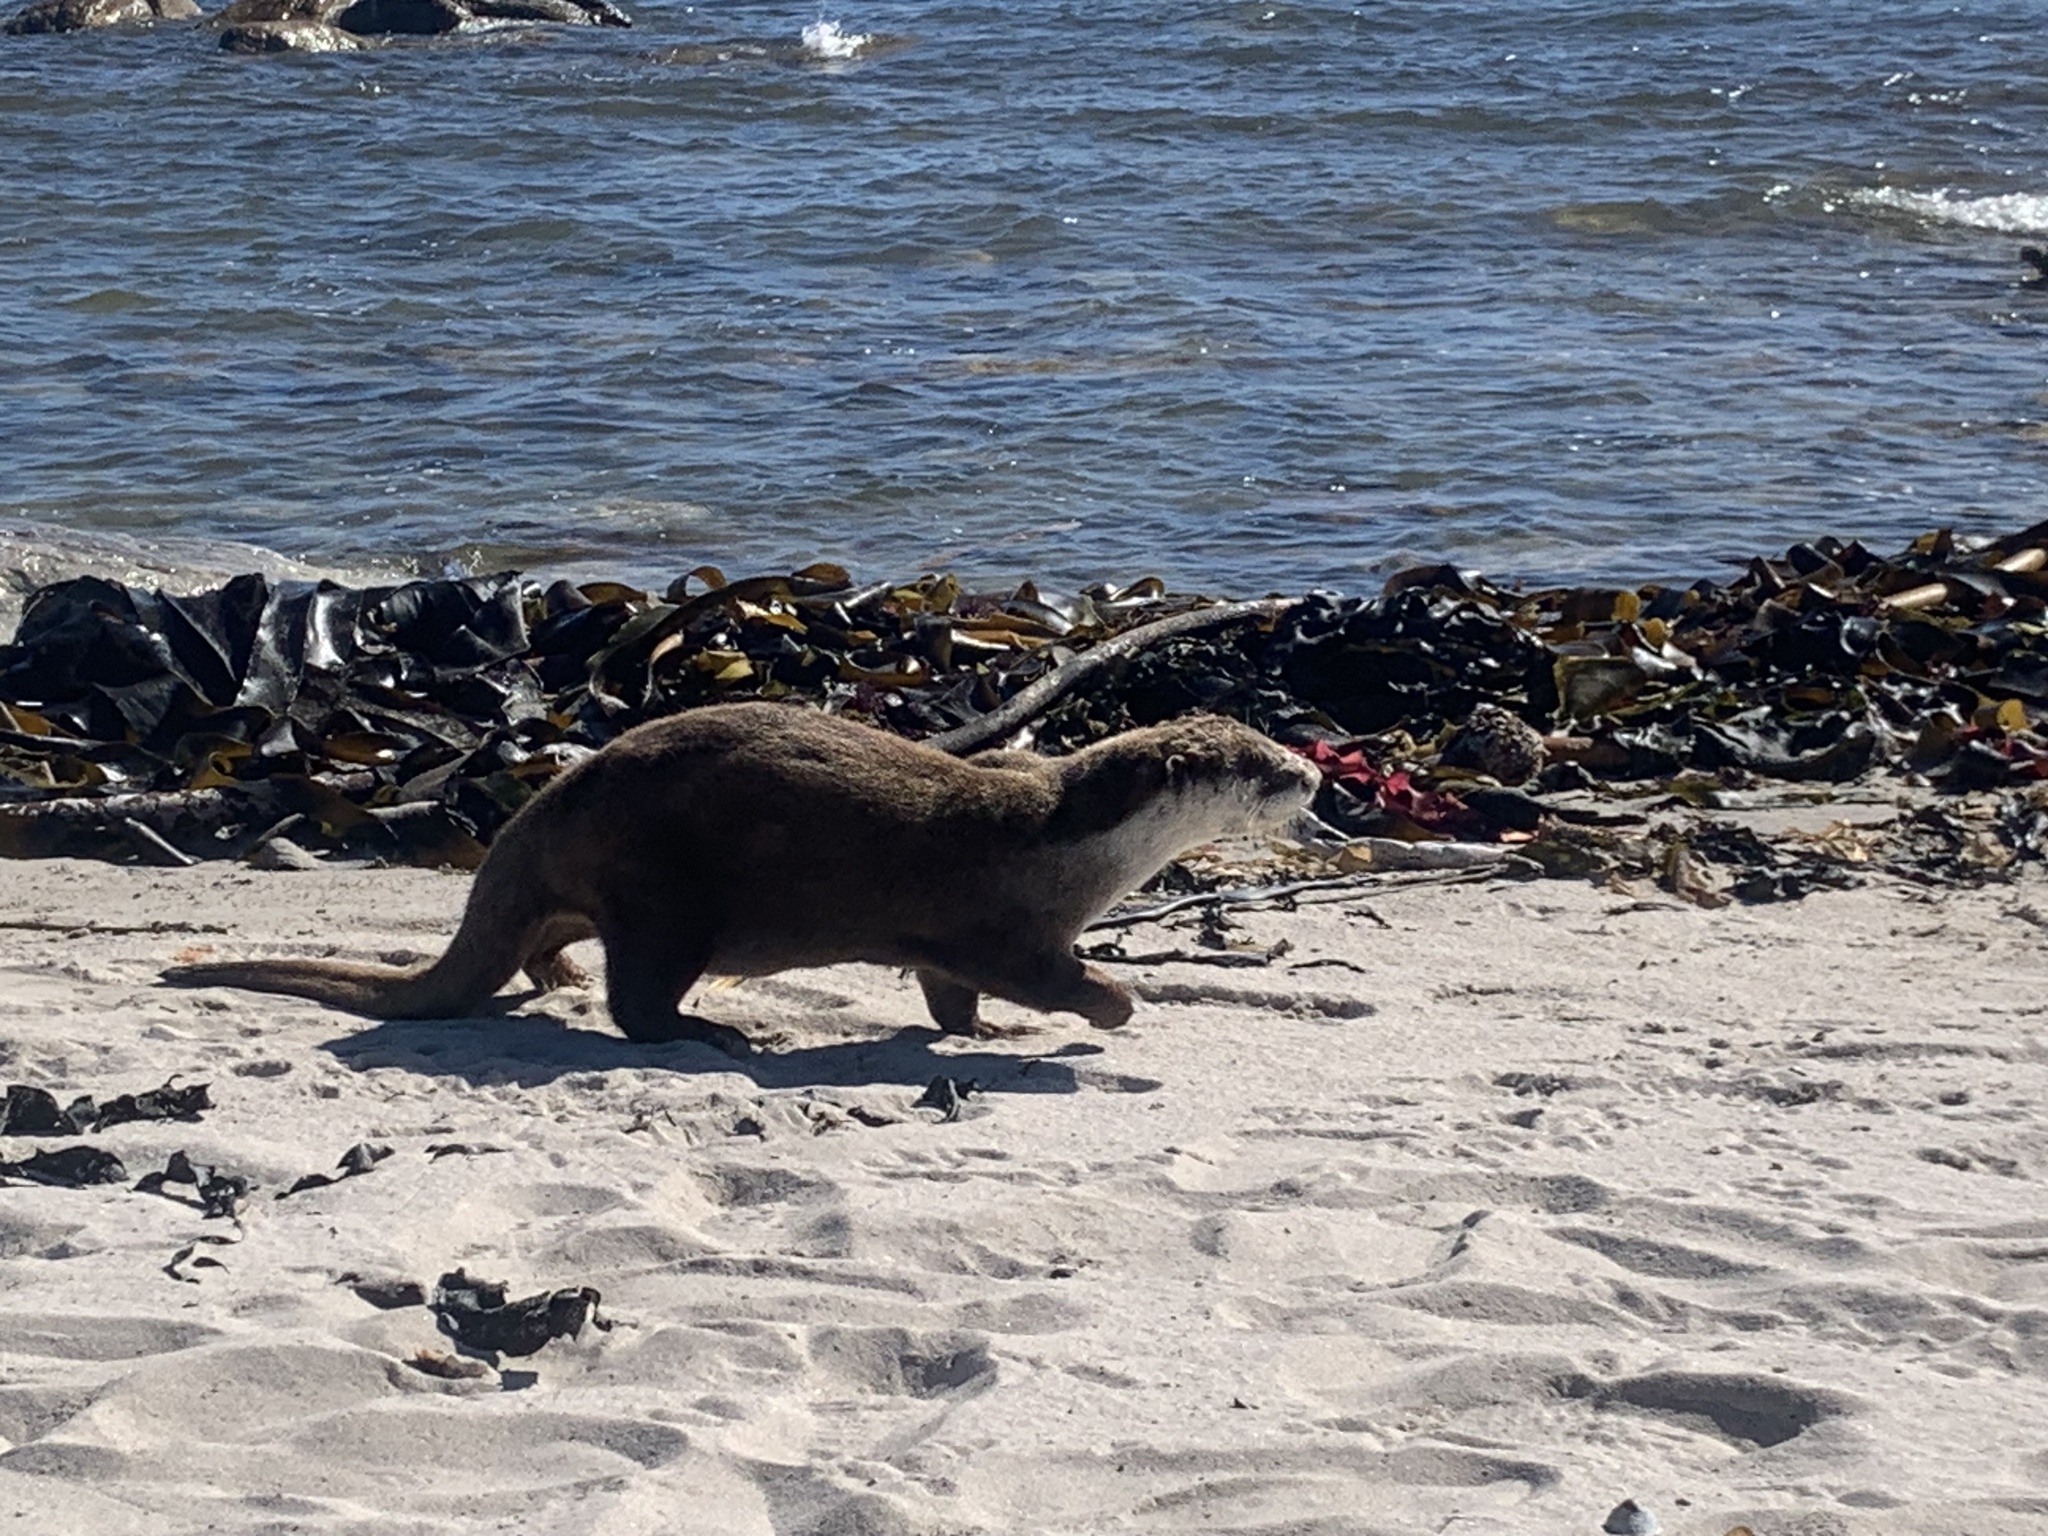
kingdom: Animalia
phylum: Chordata
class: Mammalia
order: Carnivora
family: Mustelidae
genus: Aonyx
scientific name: Aonyx capensis
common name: African clawless otter
